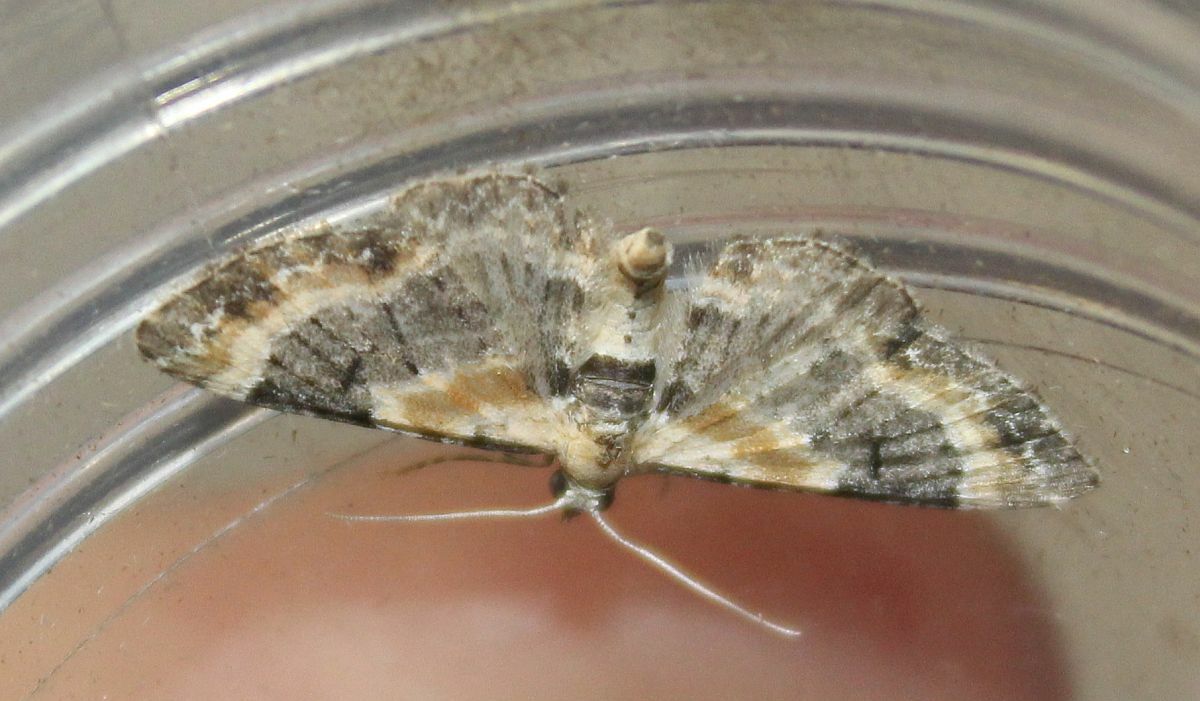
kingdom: Animalia
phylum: Arthropoda
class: Insecta
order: Lepidoptera
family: Geometridae
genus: Eupithecia
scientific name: Eupithecia linariata
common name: Toadflax pug
